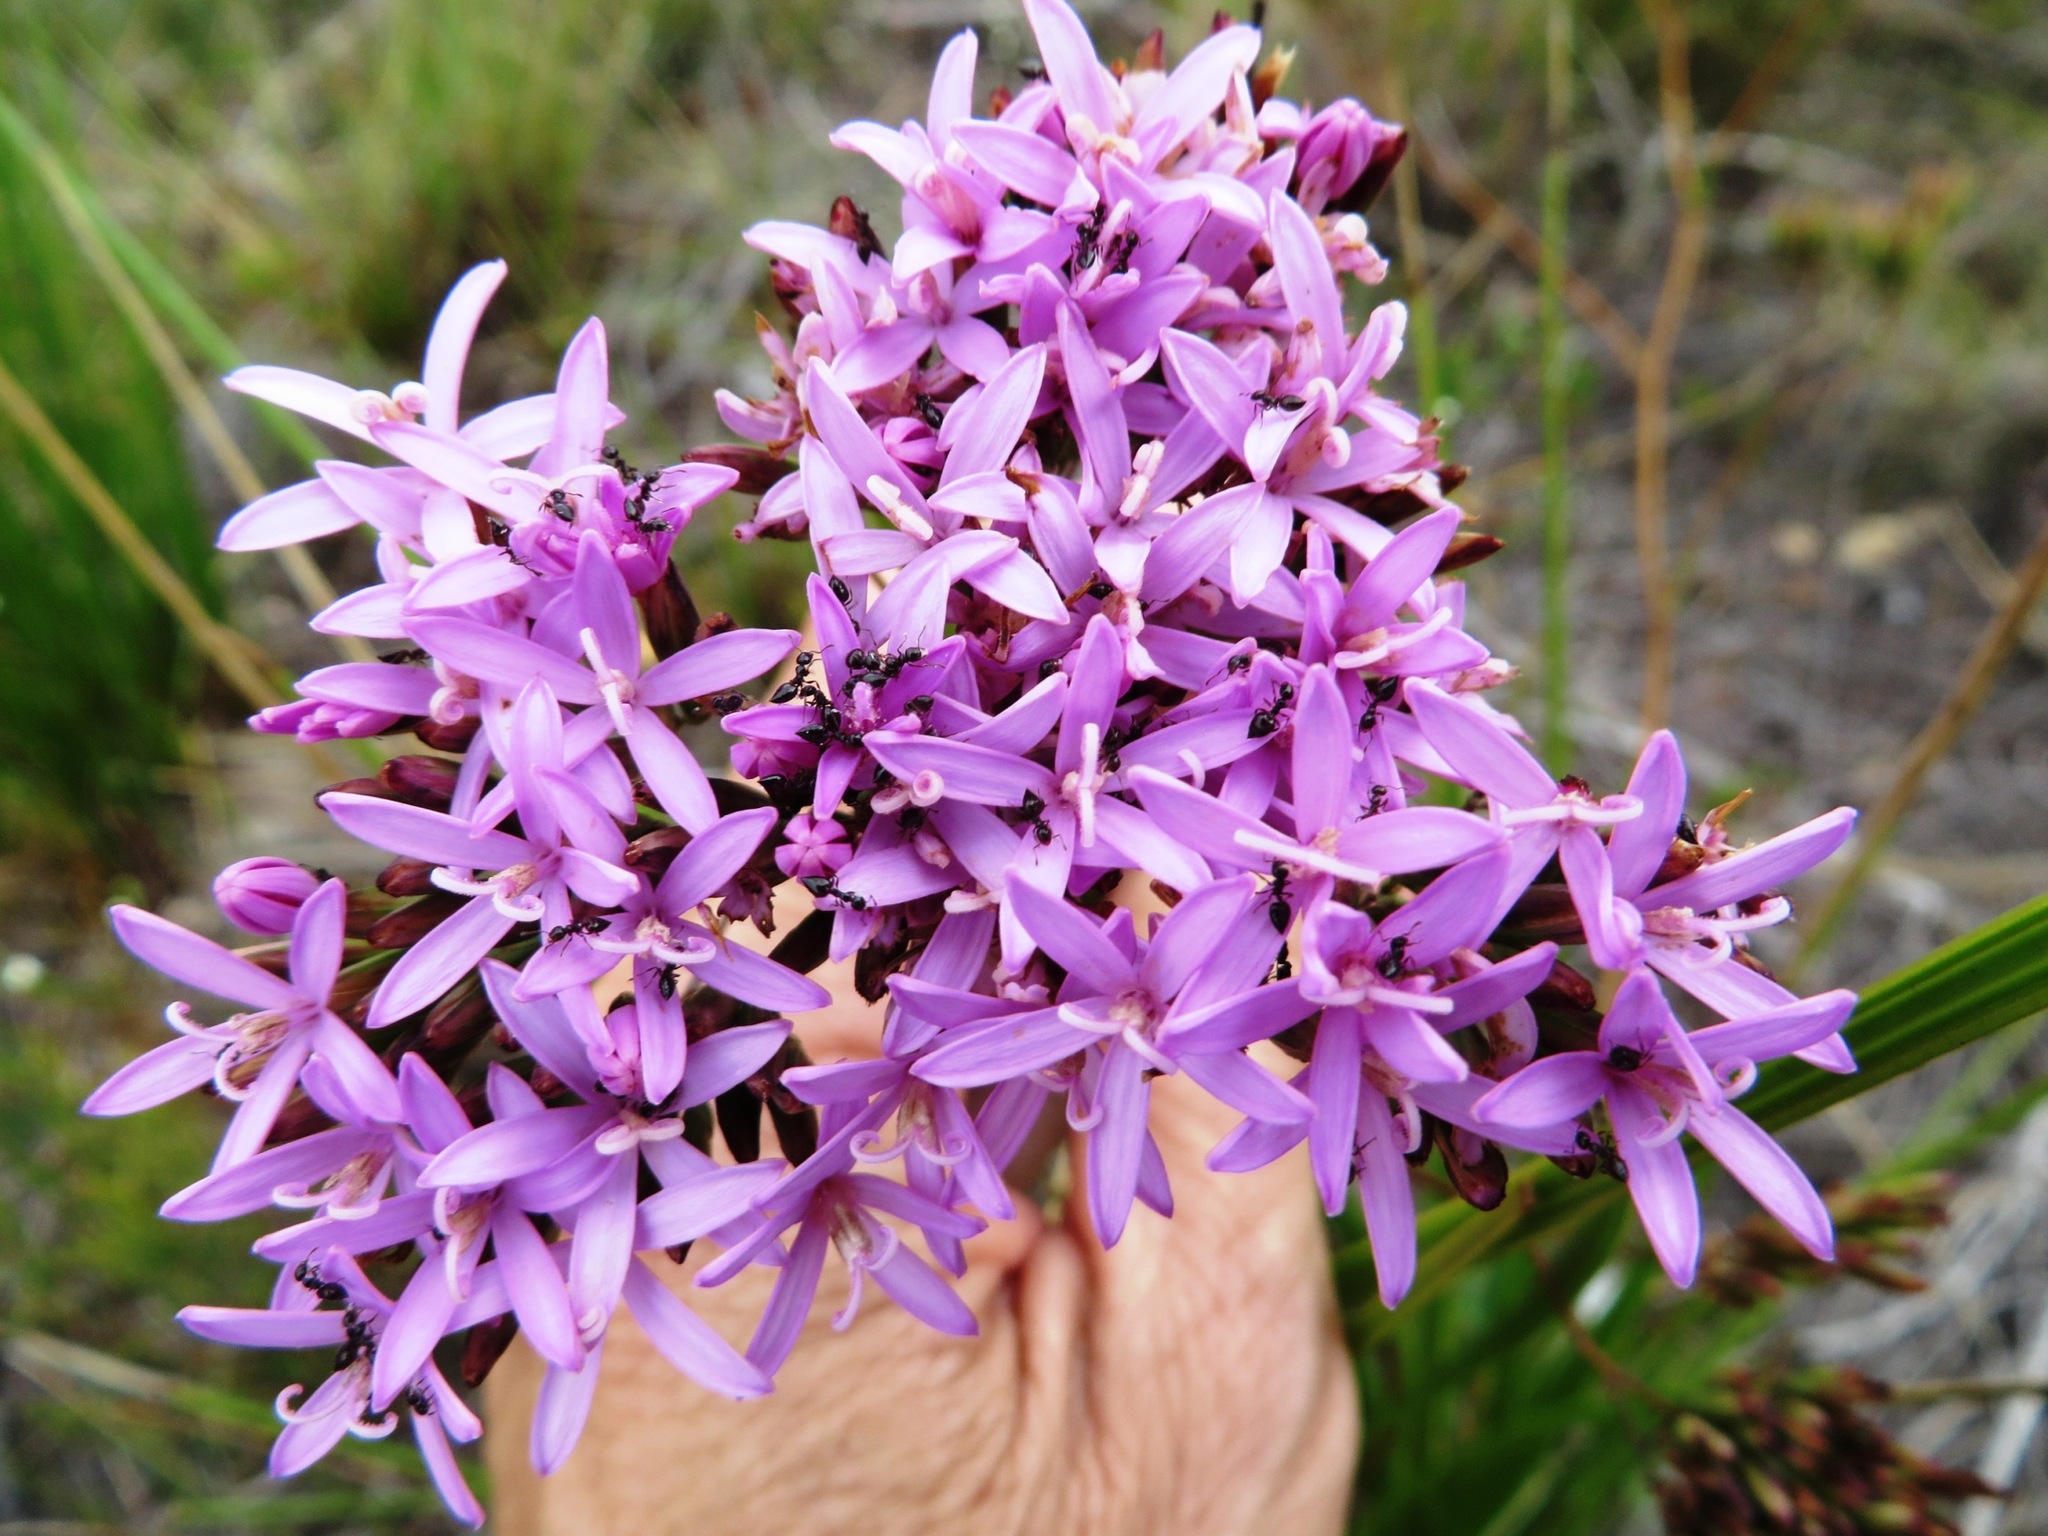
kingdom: Plantae
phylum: Tracheophyta
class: Magnoliopsida
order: Asterales
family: Asteraceae
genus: Corymbium
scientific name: Corymbium glabrum
